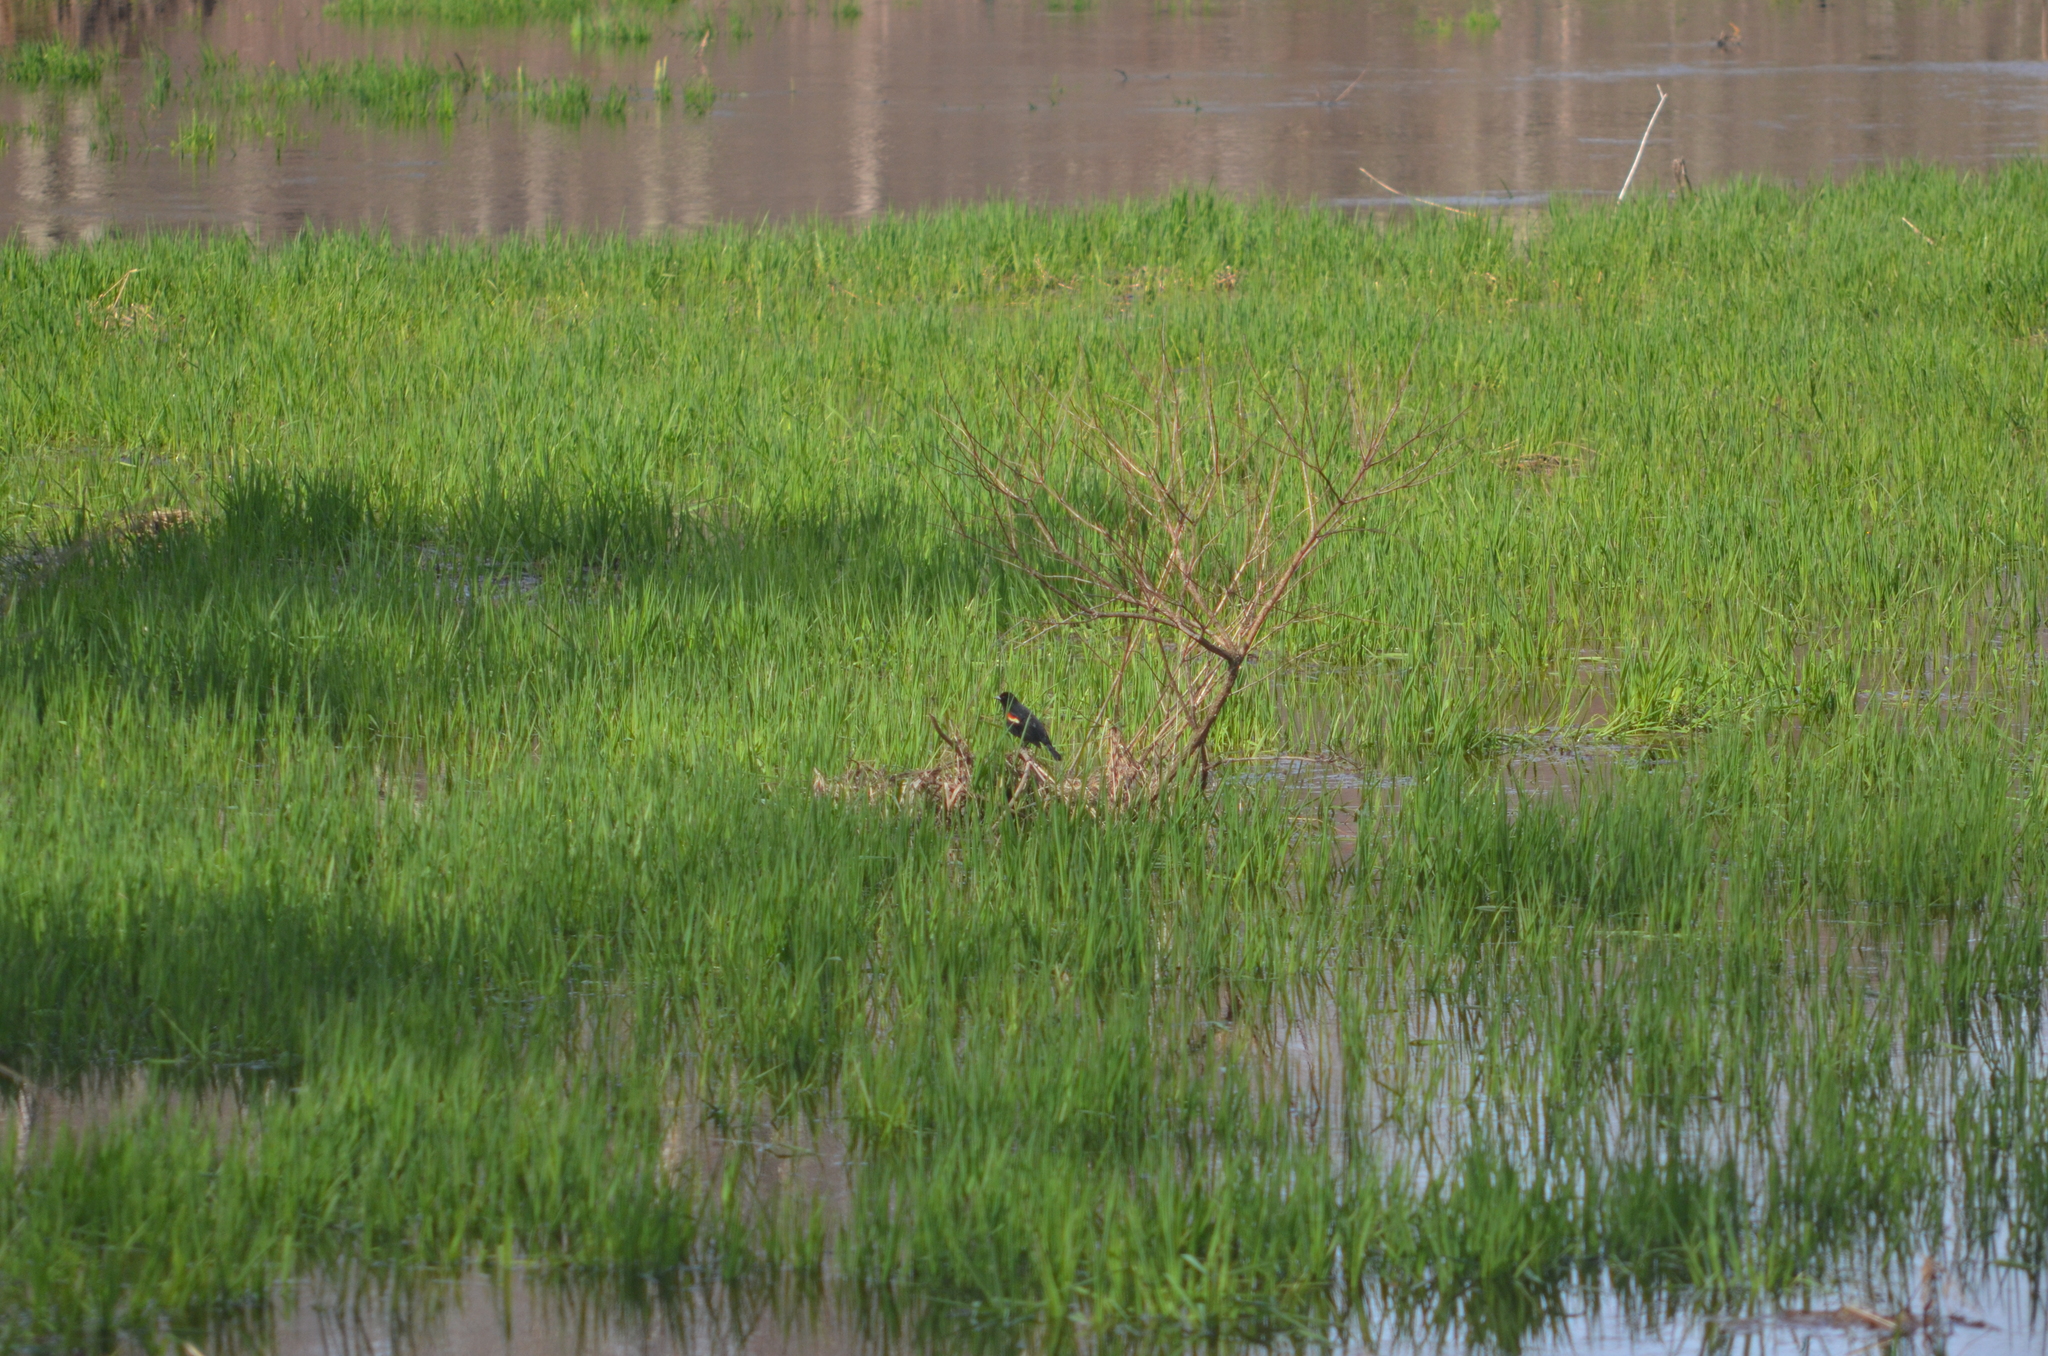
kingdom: Animalia
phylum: Chordata
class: Aves
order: Passeriformes
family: Icteridae
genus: Agelaius
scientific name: Agelaius phoeniceus
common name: Red-winged blackbird
